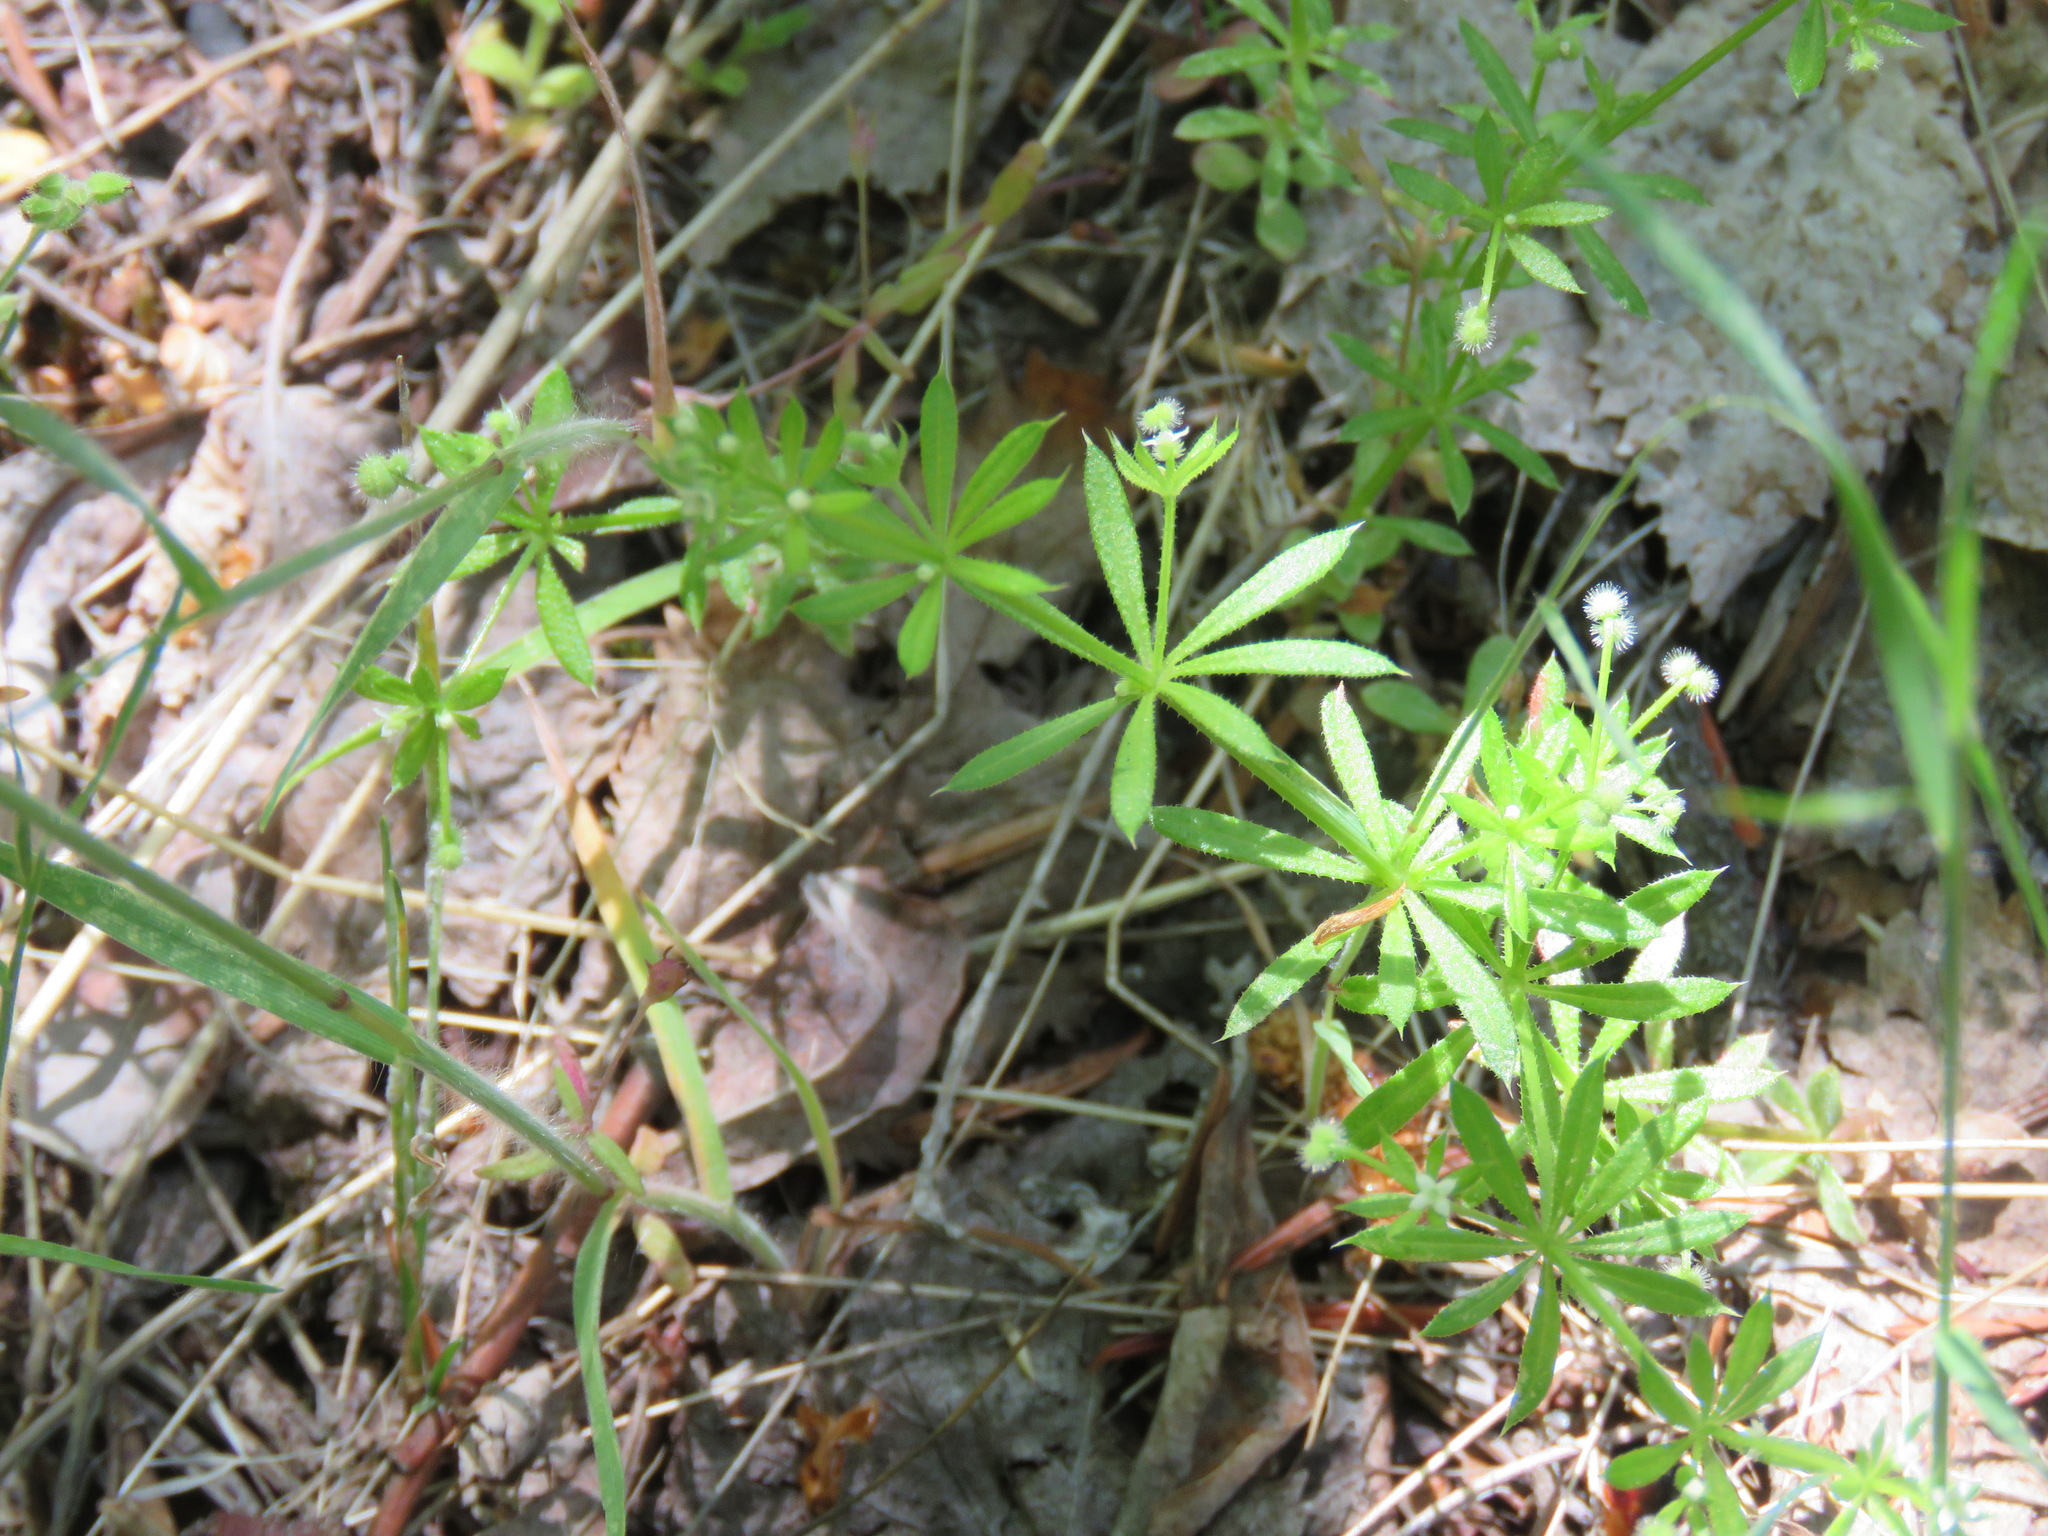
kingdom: Plantae
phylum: Tracheophyta
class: Magnoliopsida
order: Gentianales
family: Rubiaceae
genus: Galium
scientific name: Galium aparine
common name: Cleavers
